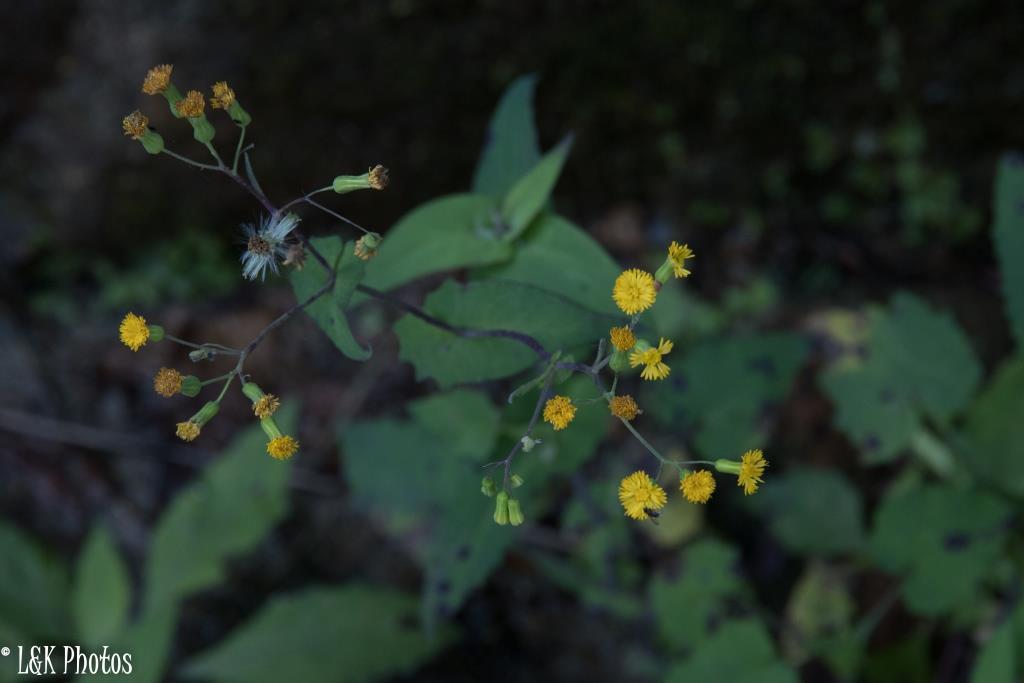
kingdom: Plantae
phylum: Tracheophyta
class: Magnoliopsida
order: Asterales
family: Asteraceae
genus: Emilia
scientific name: Emilia citrina
